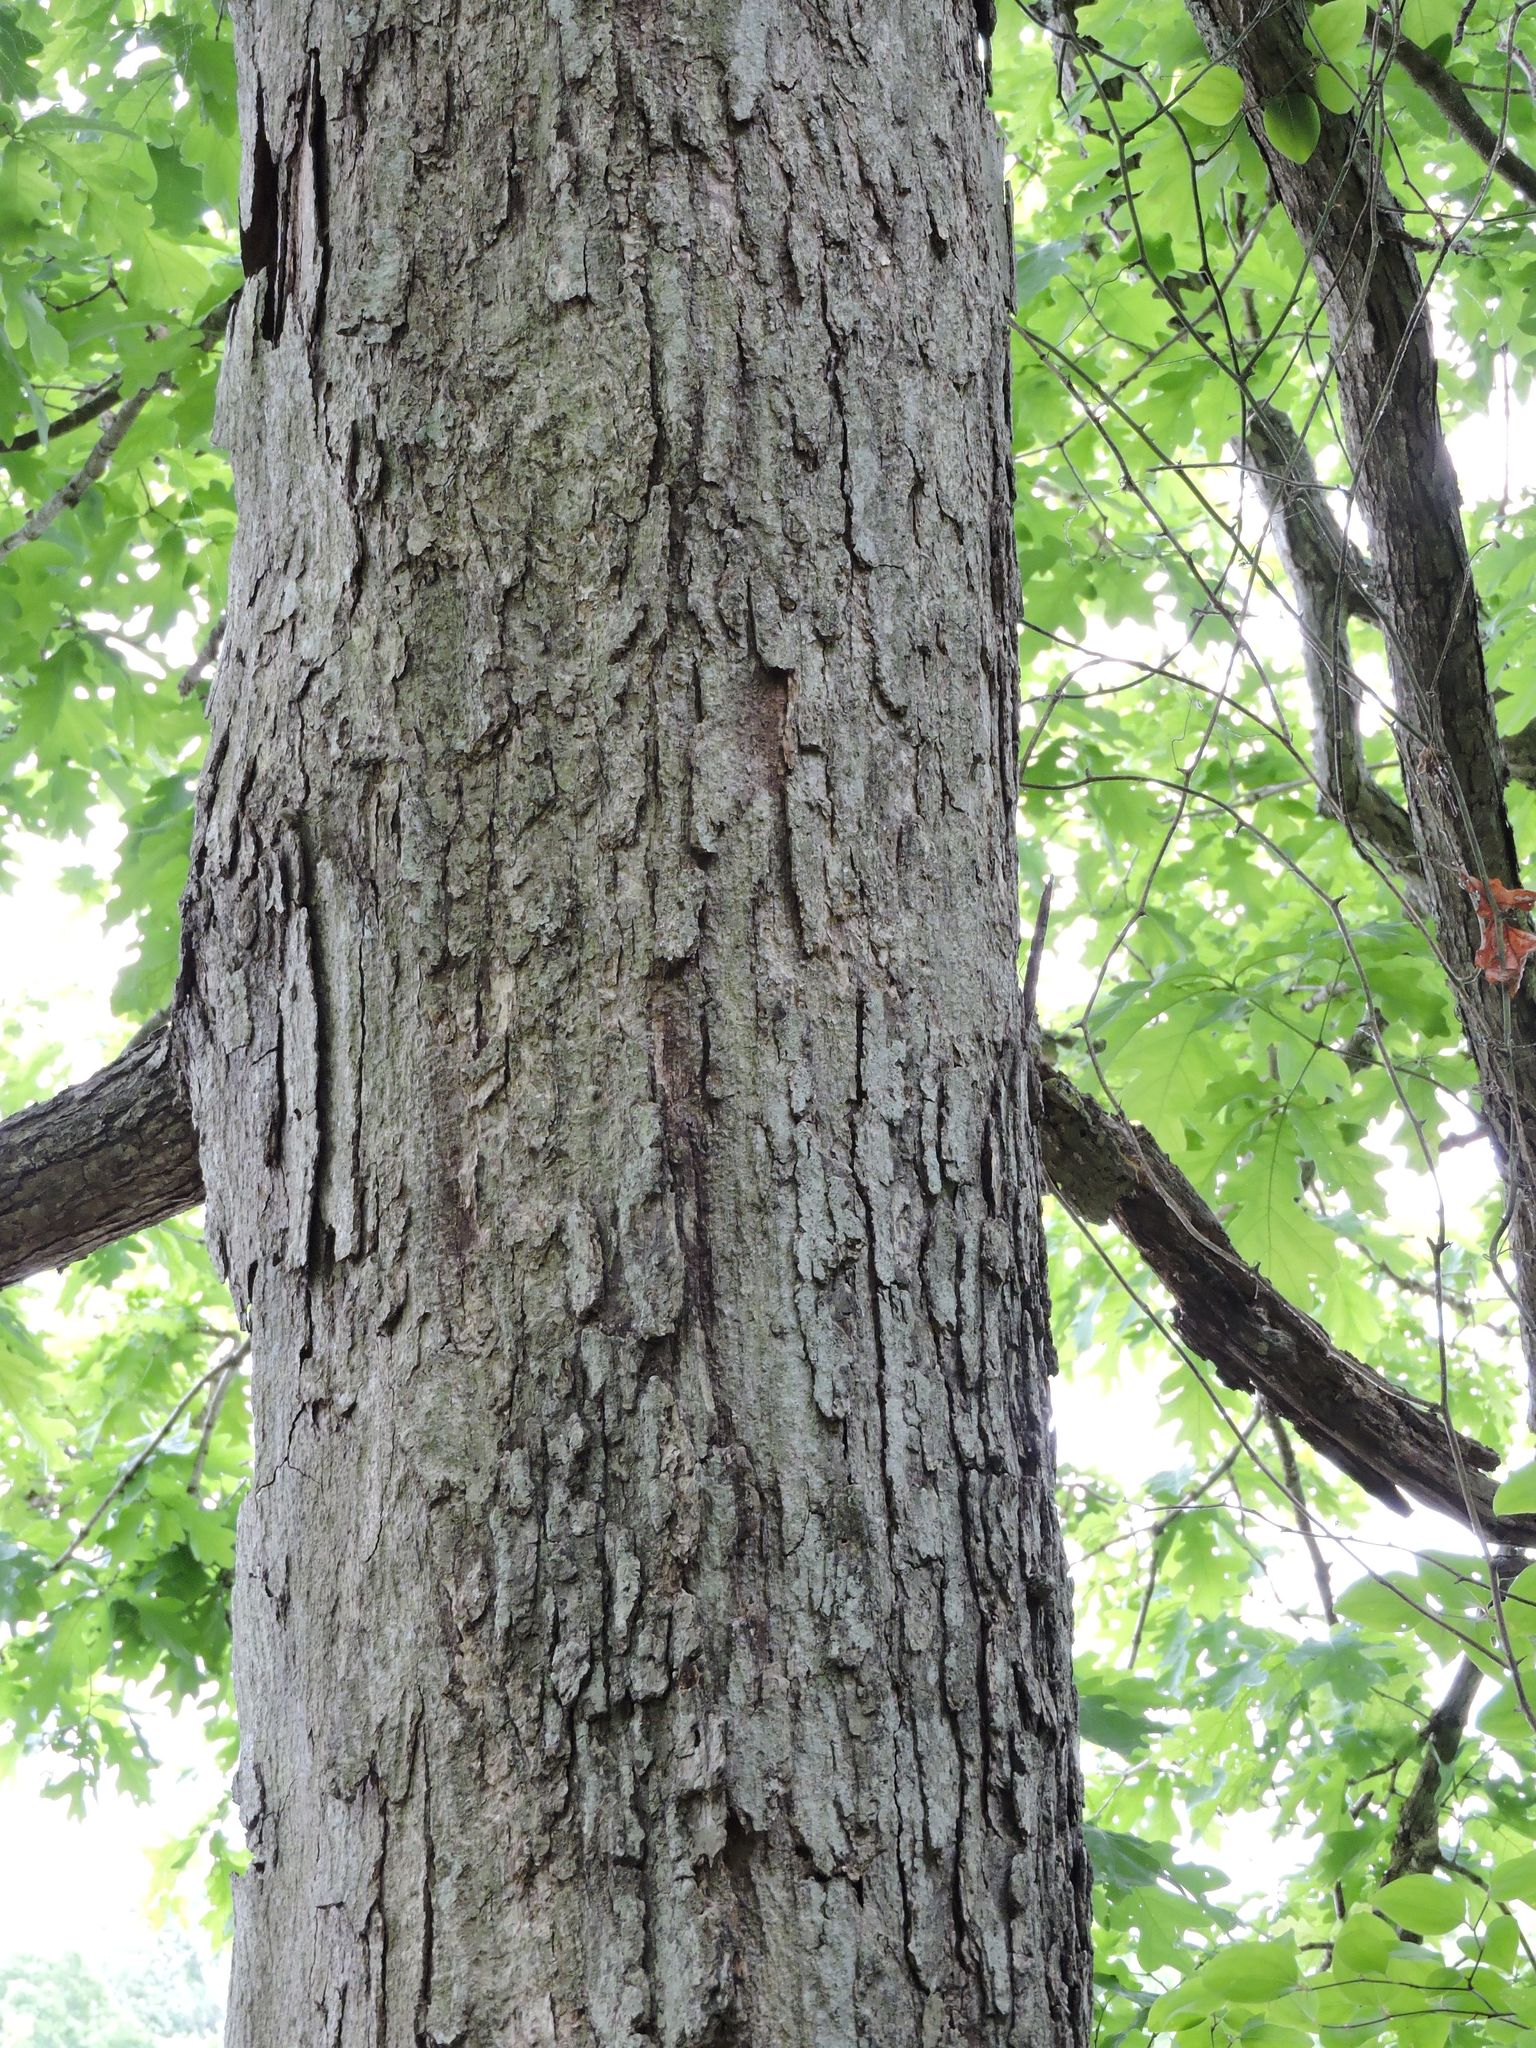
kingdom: Plantae
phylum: Tracheophyta
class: Magnoliopsida
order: Fagales
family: Fagaceae
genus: Quercus
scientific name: Quercus alba
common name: White oak
